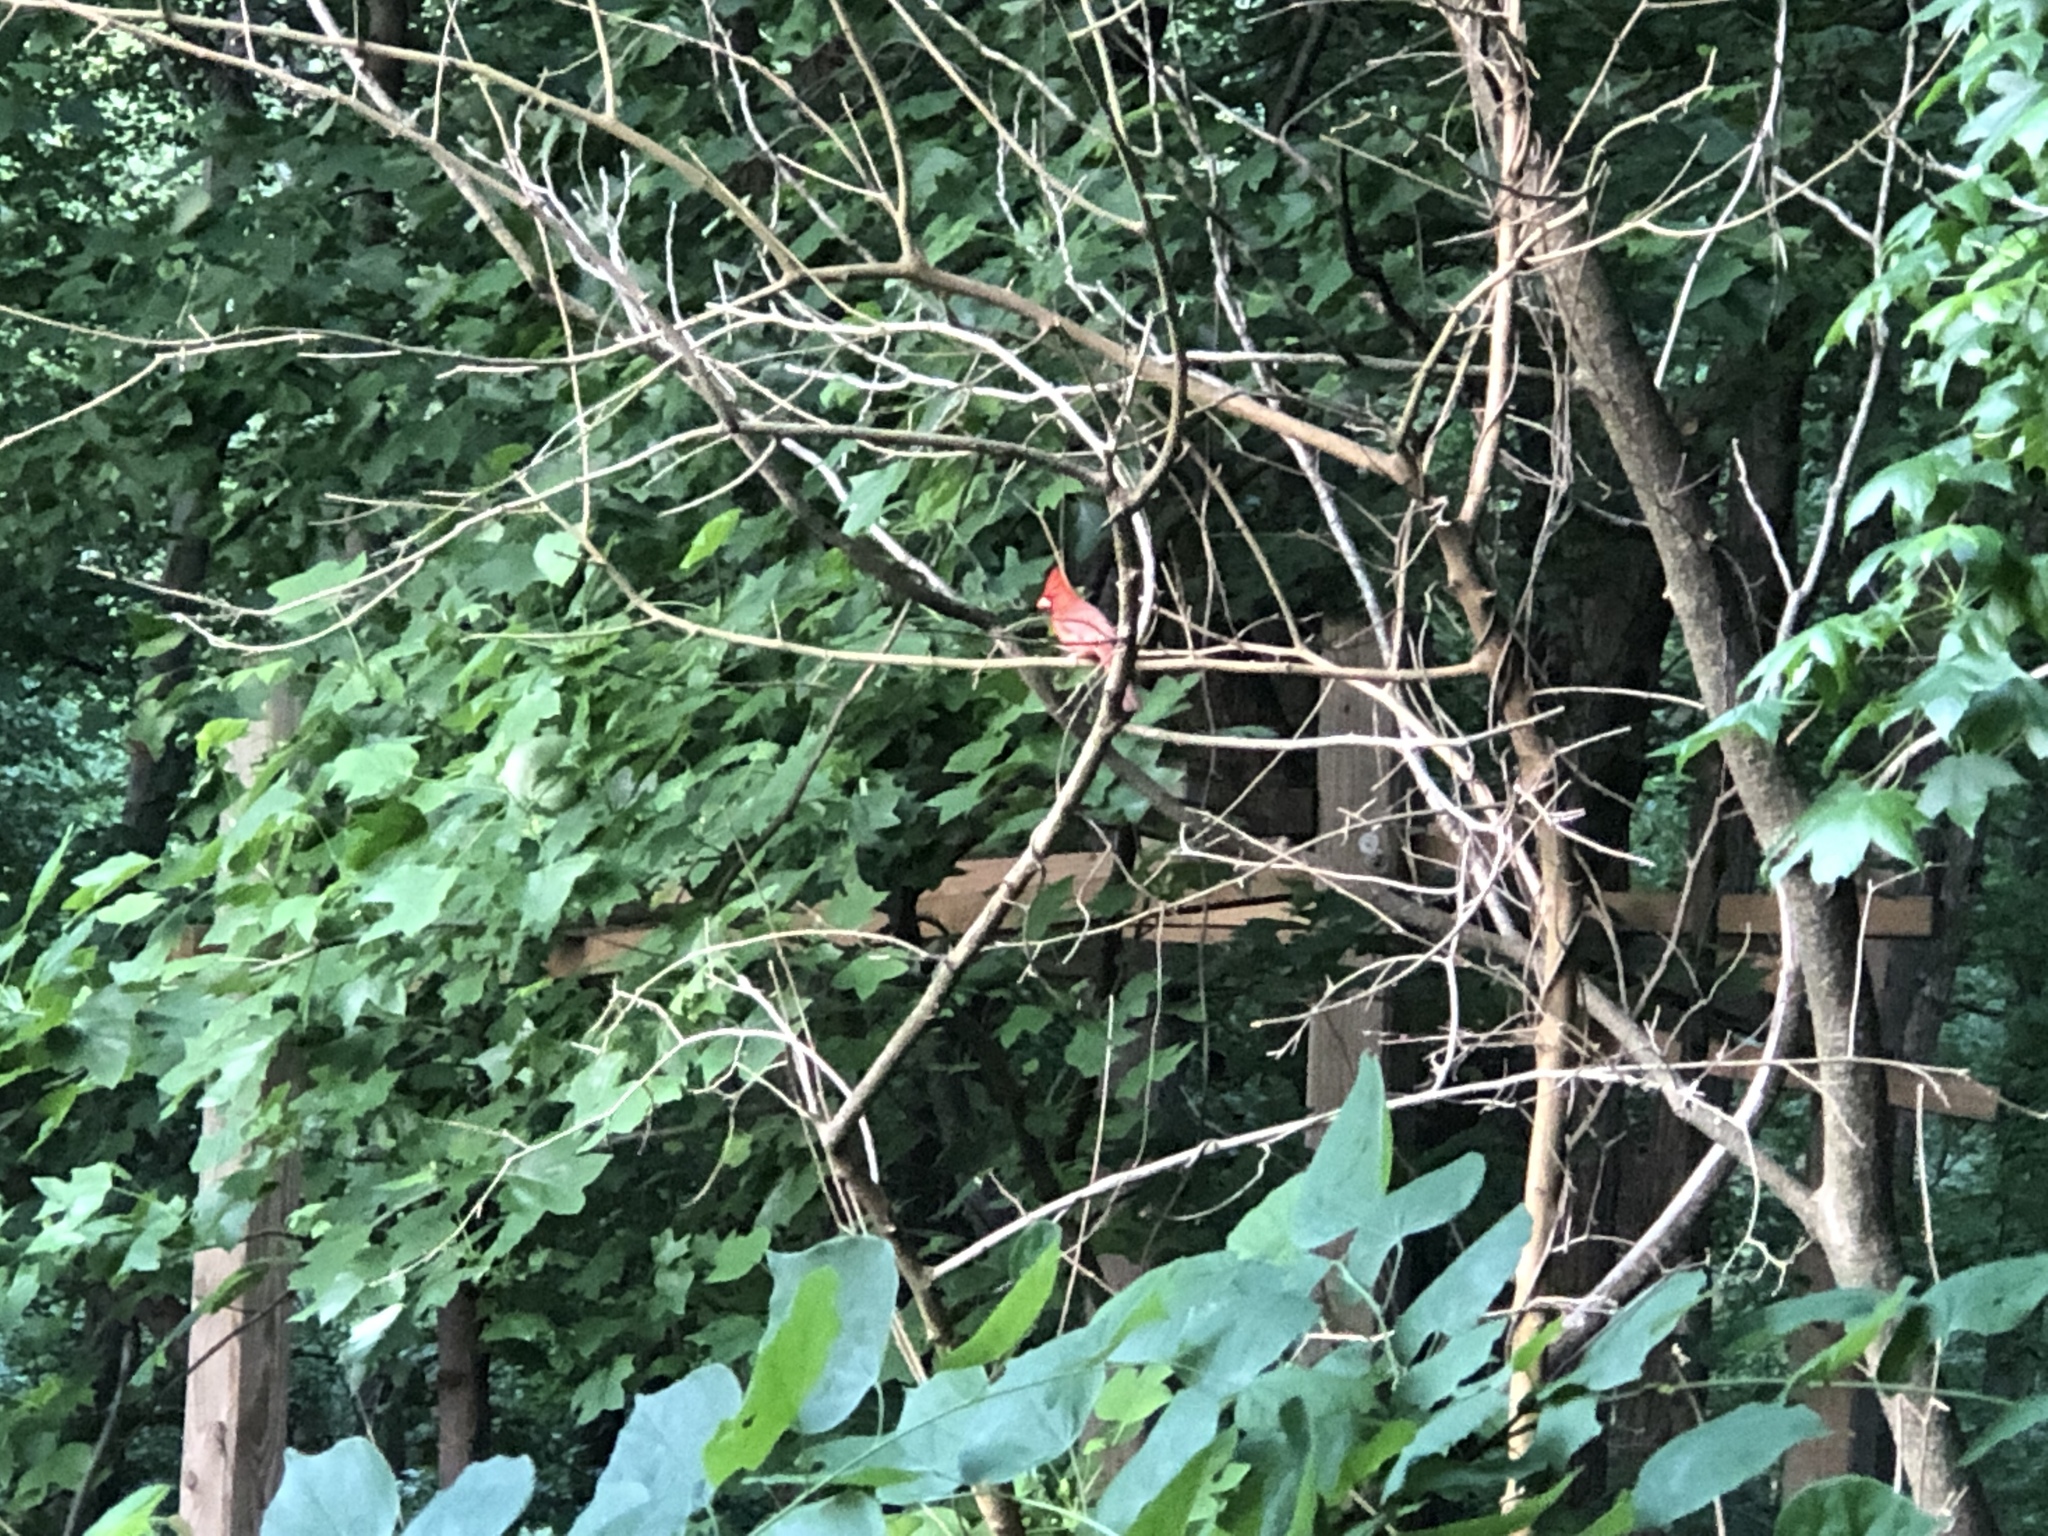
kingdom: Animalia
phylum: Chordata
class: Aves
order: Passeriformes
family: Cardinalidae
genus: Cardinalis
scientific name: Cardinalis cardinalis
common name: Northern cardinal
